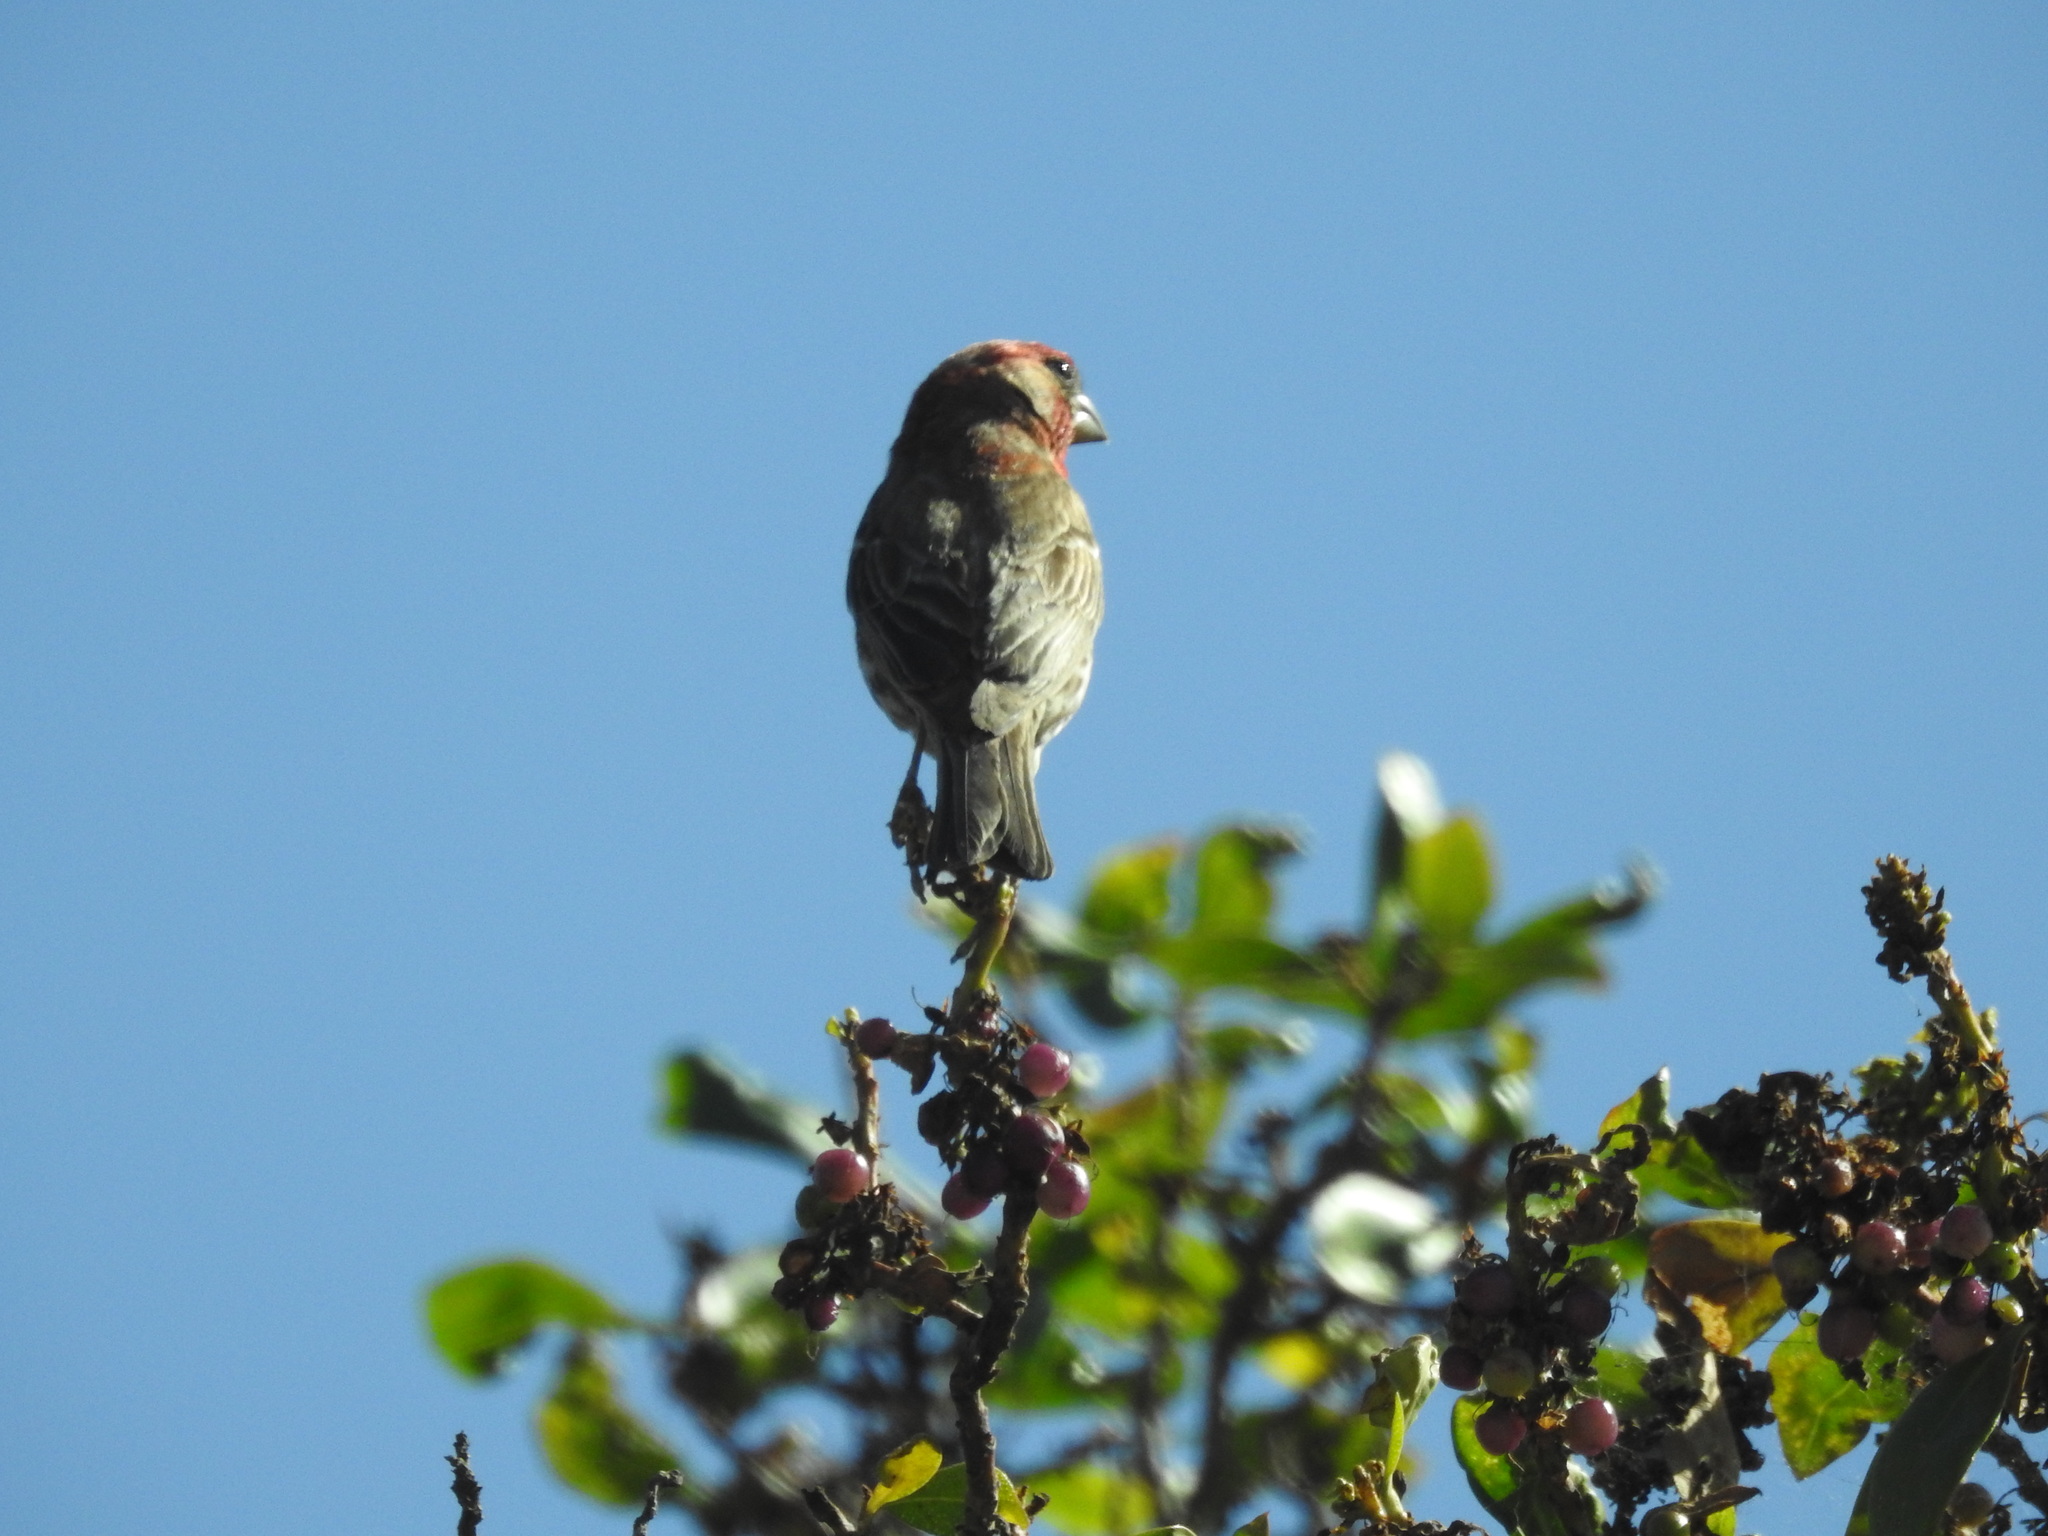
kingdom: Animalia
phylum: Chordata
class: Aves
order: Passeriformes
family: Fringillidae
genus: Haemorhous
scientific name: Haemorhous mexicanus
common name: House finch
